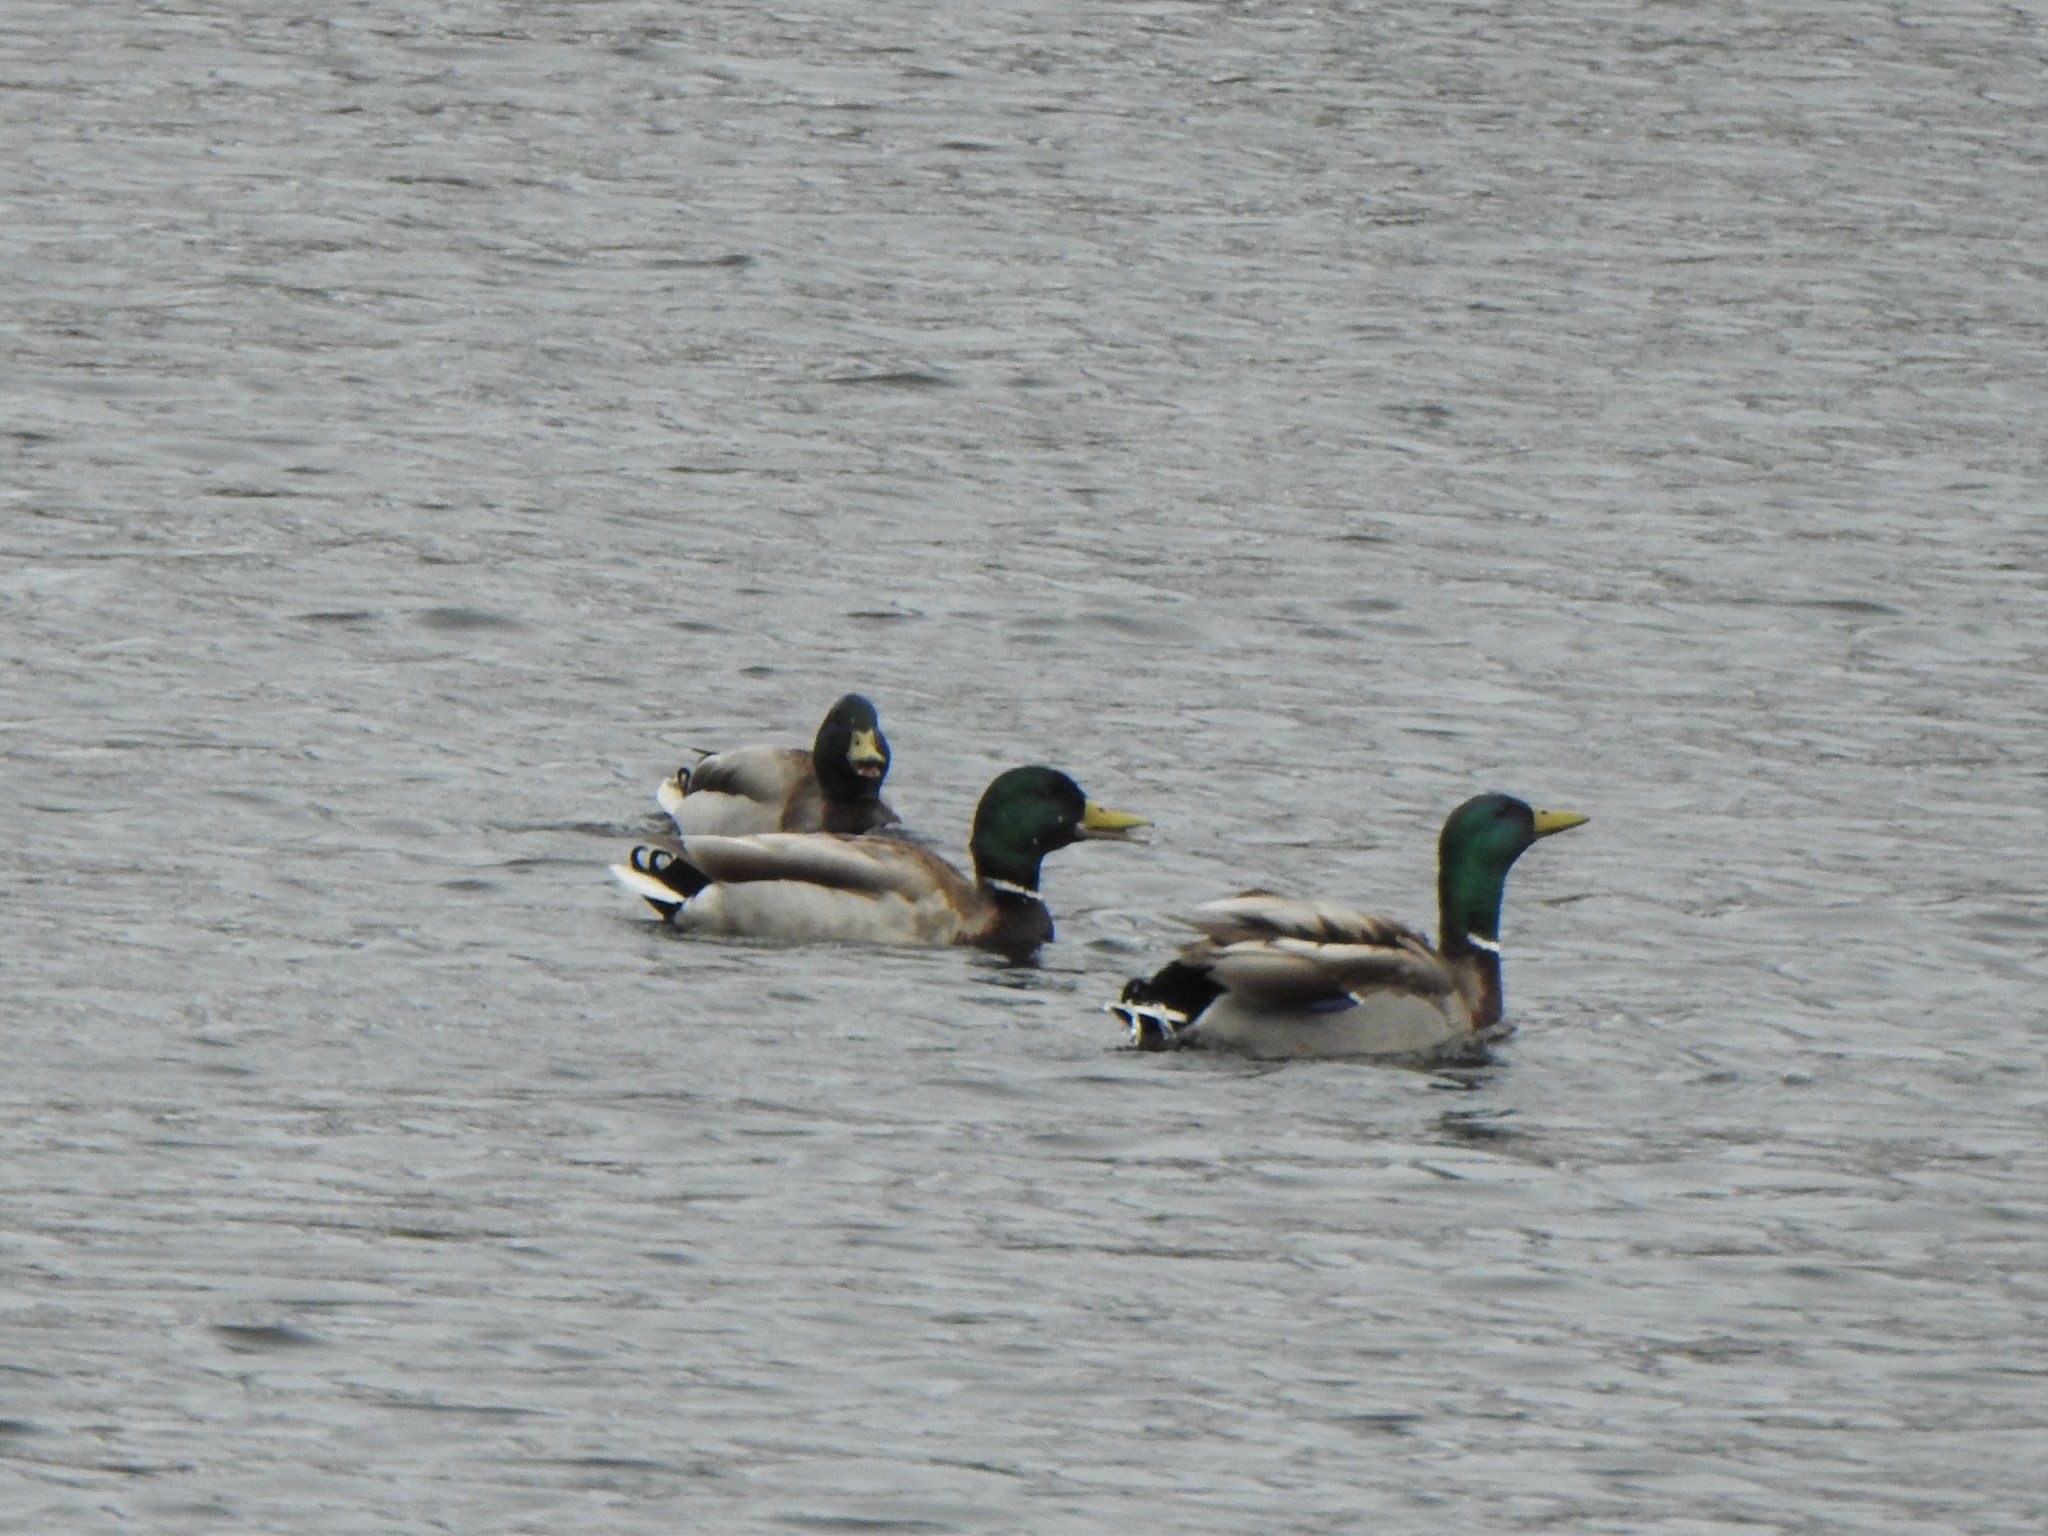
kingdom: Animalia
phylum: Chordata
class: Aves
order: Anseriformes
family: Anatidae
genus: Anas
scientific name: Anas platyrhynchos
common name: Mallard
